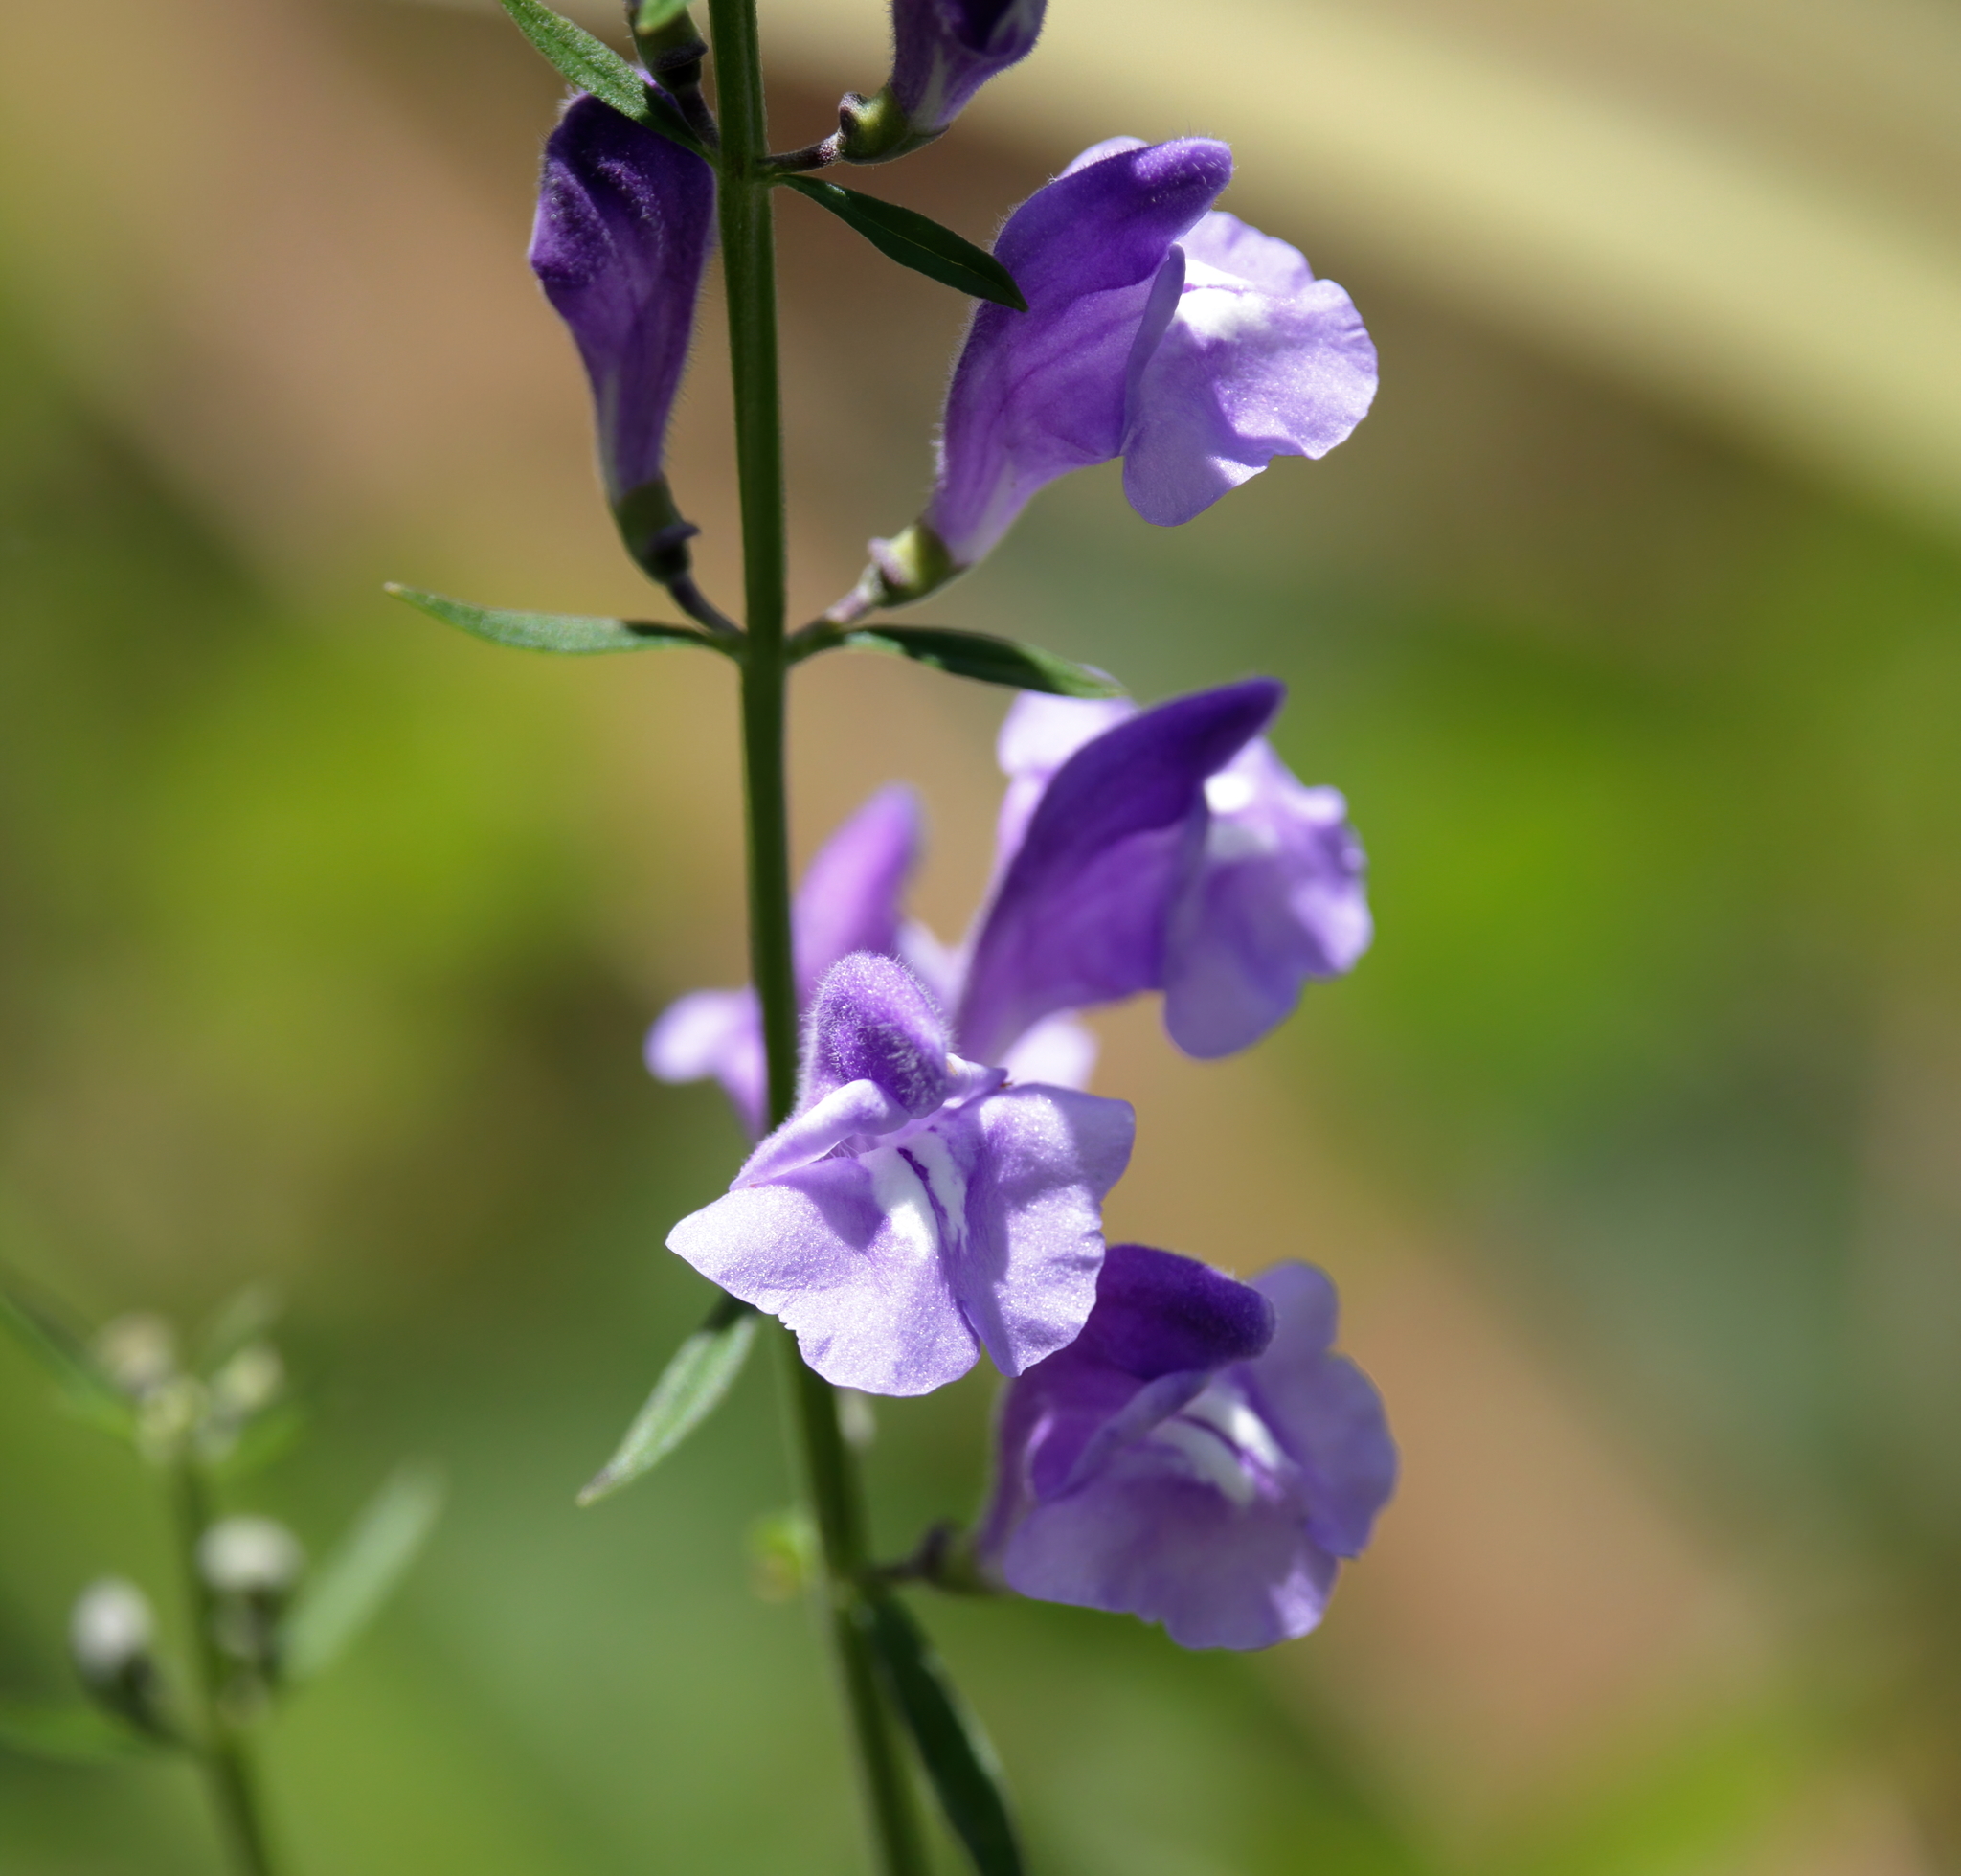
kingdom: Plantae
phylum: Tracheophyta
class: Magnoliopsida
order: Lamiales
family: Lamiaceae
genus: Scutellaria
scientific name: Scutellaria integrifolia
